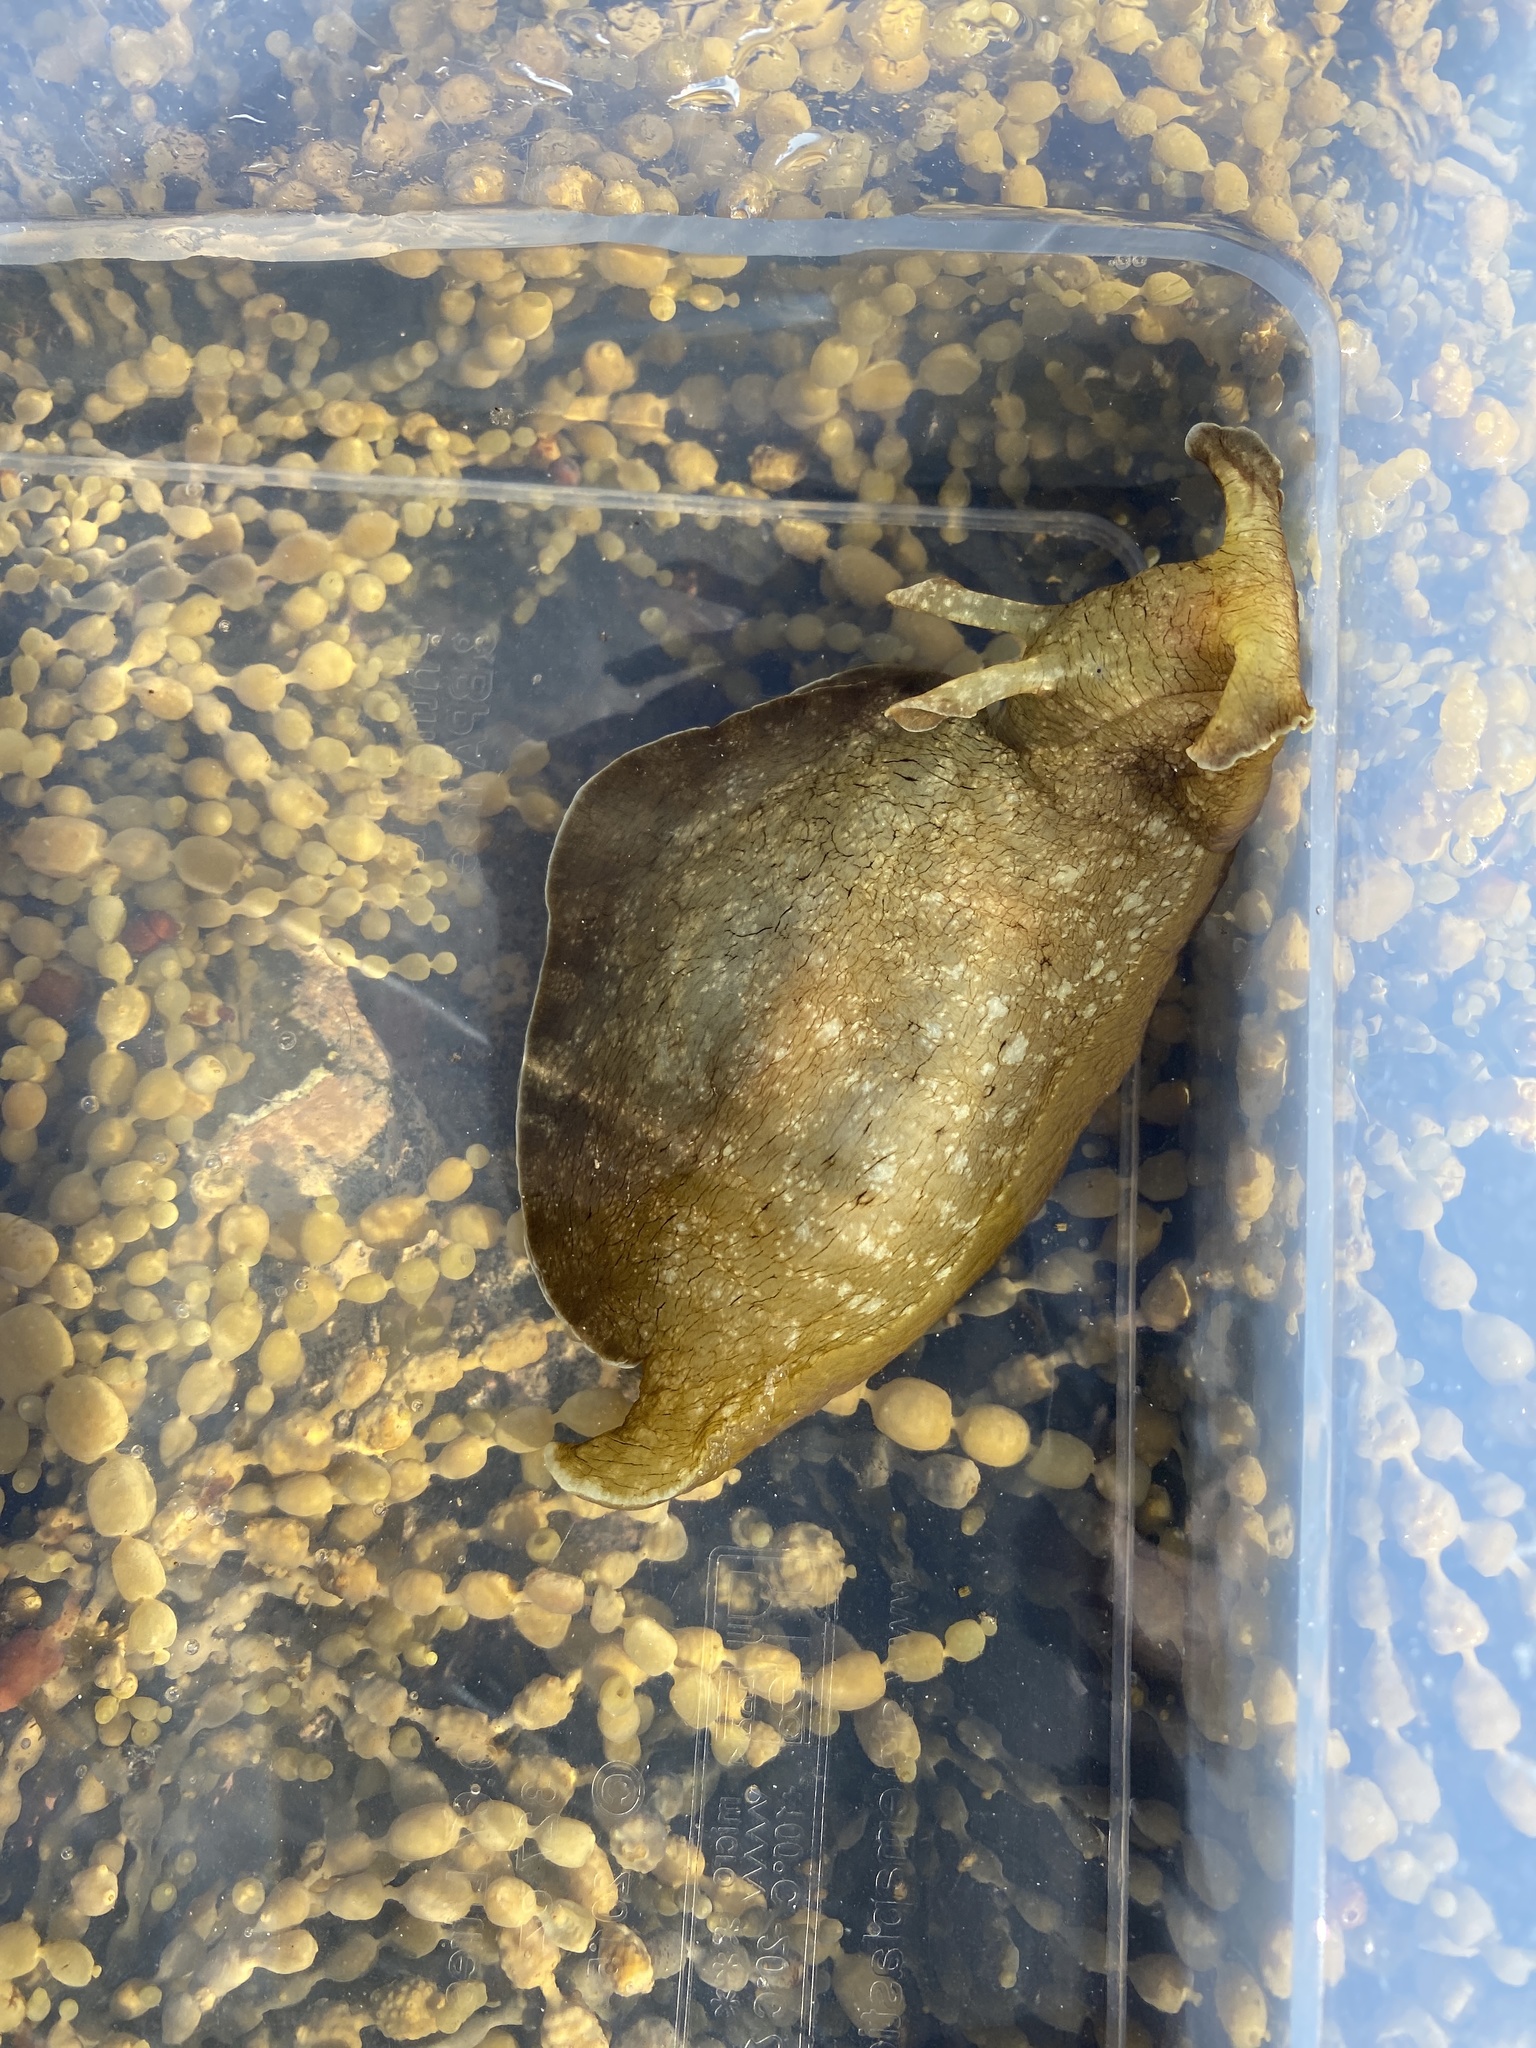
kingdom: Animalia
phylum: Mollusca
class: Gastropoda
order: Aplysiida
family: Aplysiidae
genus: Aplysia
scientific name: Aplysia juliana
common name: Walking sea hare
